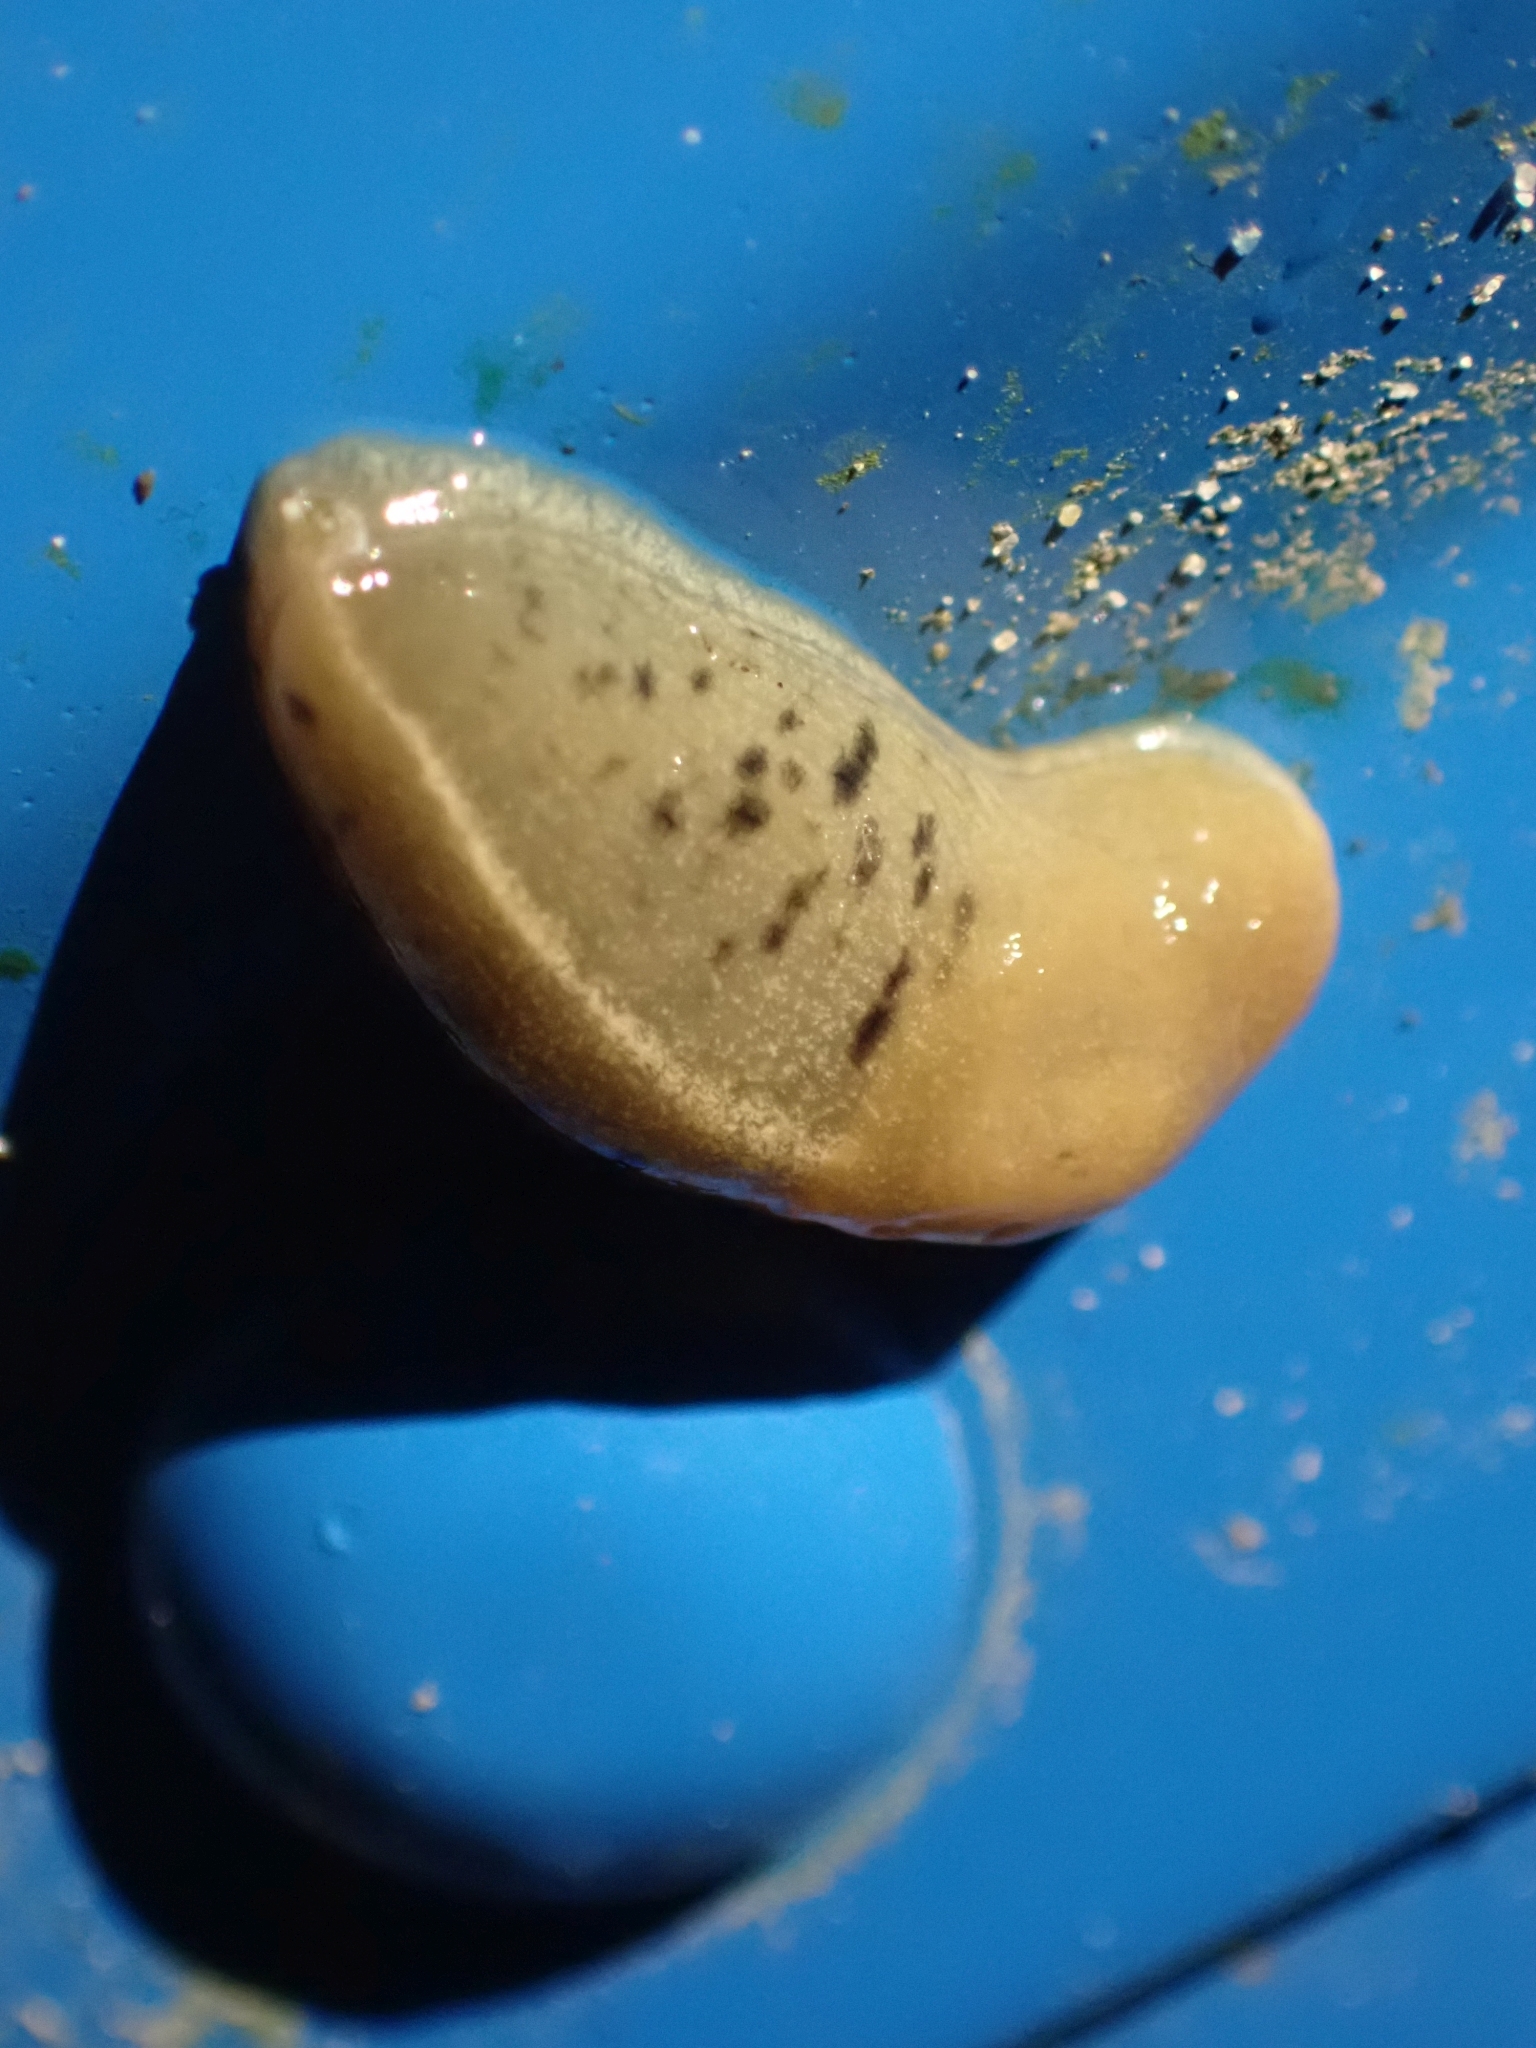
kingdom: Animalia
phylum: Mollusca
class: Gastropoda
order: Stylommatophora
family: Ariolimacidae
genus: Ariolimax
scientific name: Ariolimax columbianus
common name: Pacific banana slug
